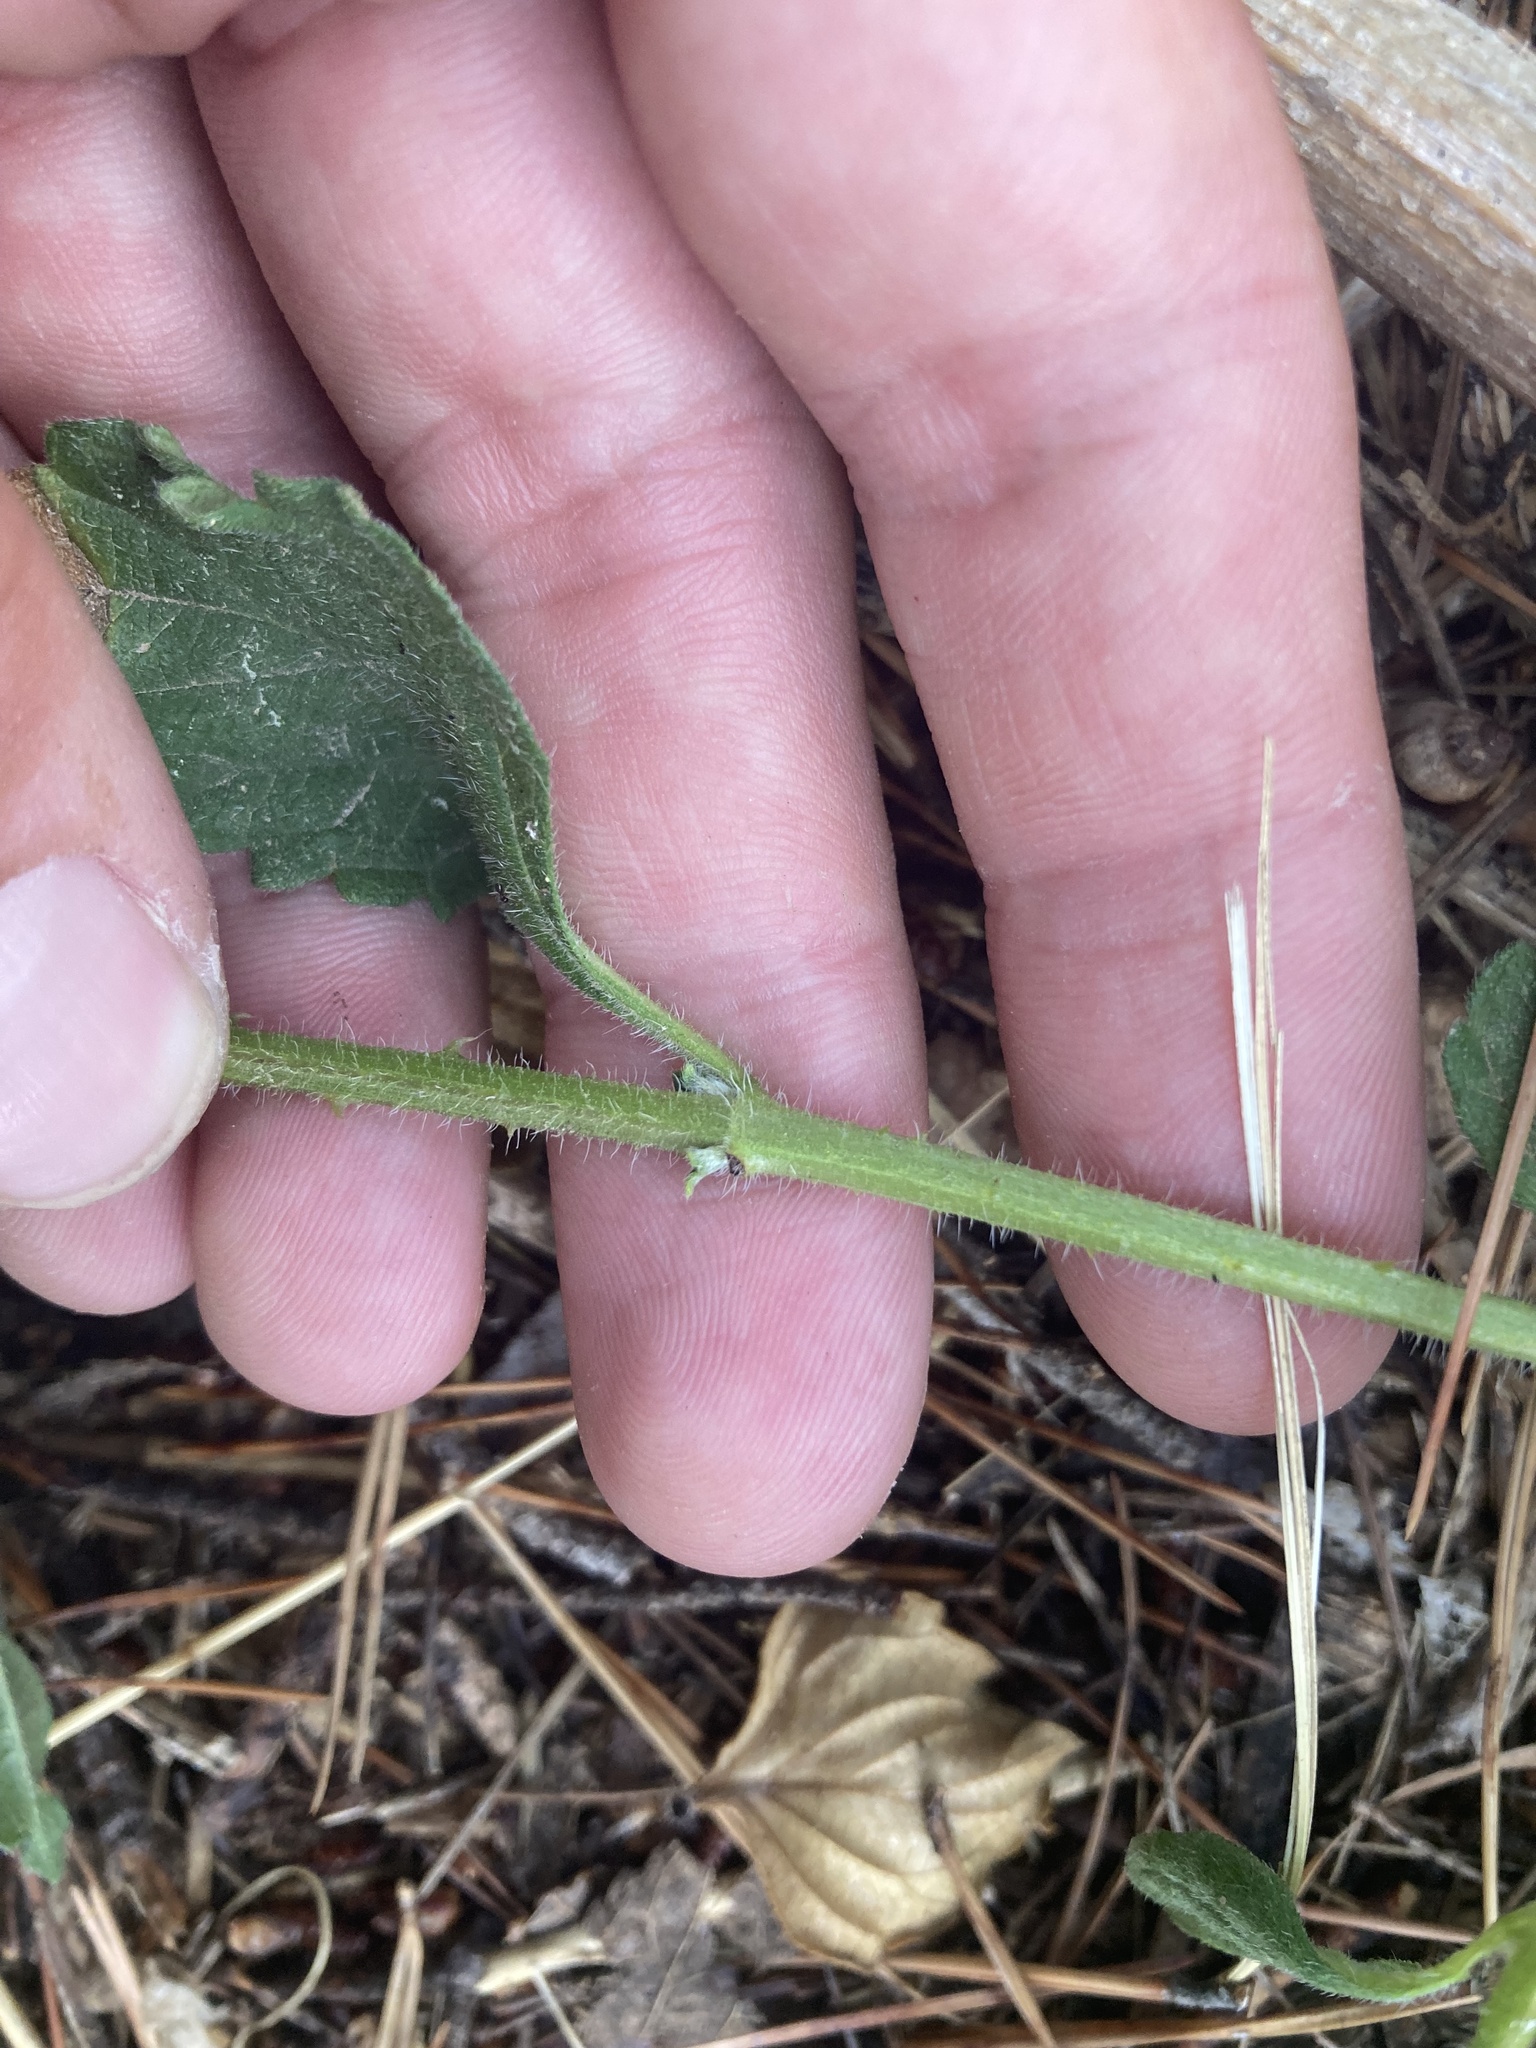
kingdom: Plantae
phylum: Tracheophyta
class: Magnoliopsida
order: Lamiales
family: Verbenaceae
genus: Lantana
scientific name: Lantana camara
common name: Lantana
